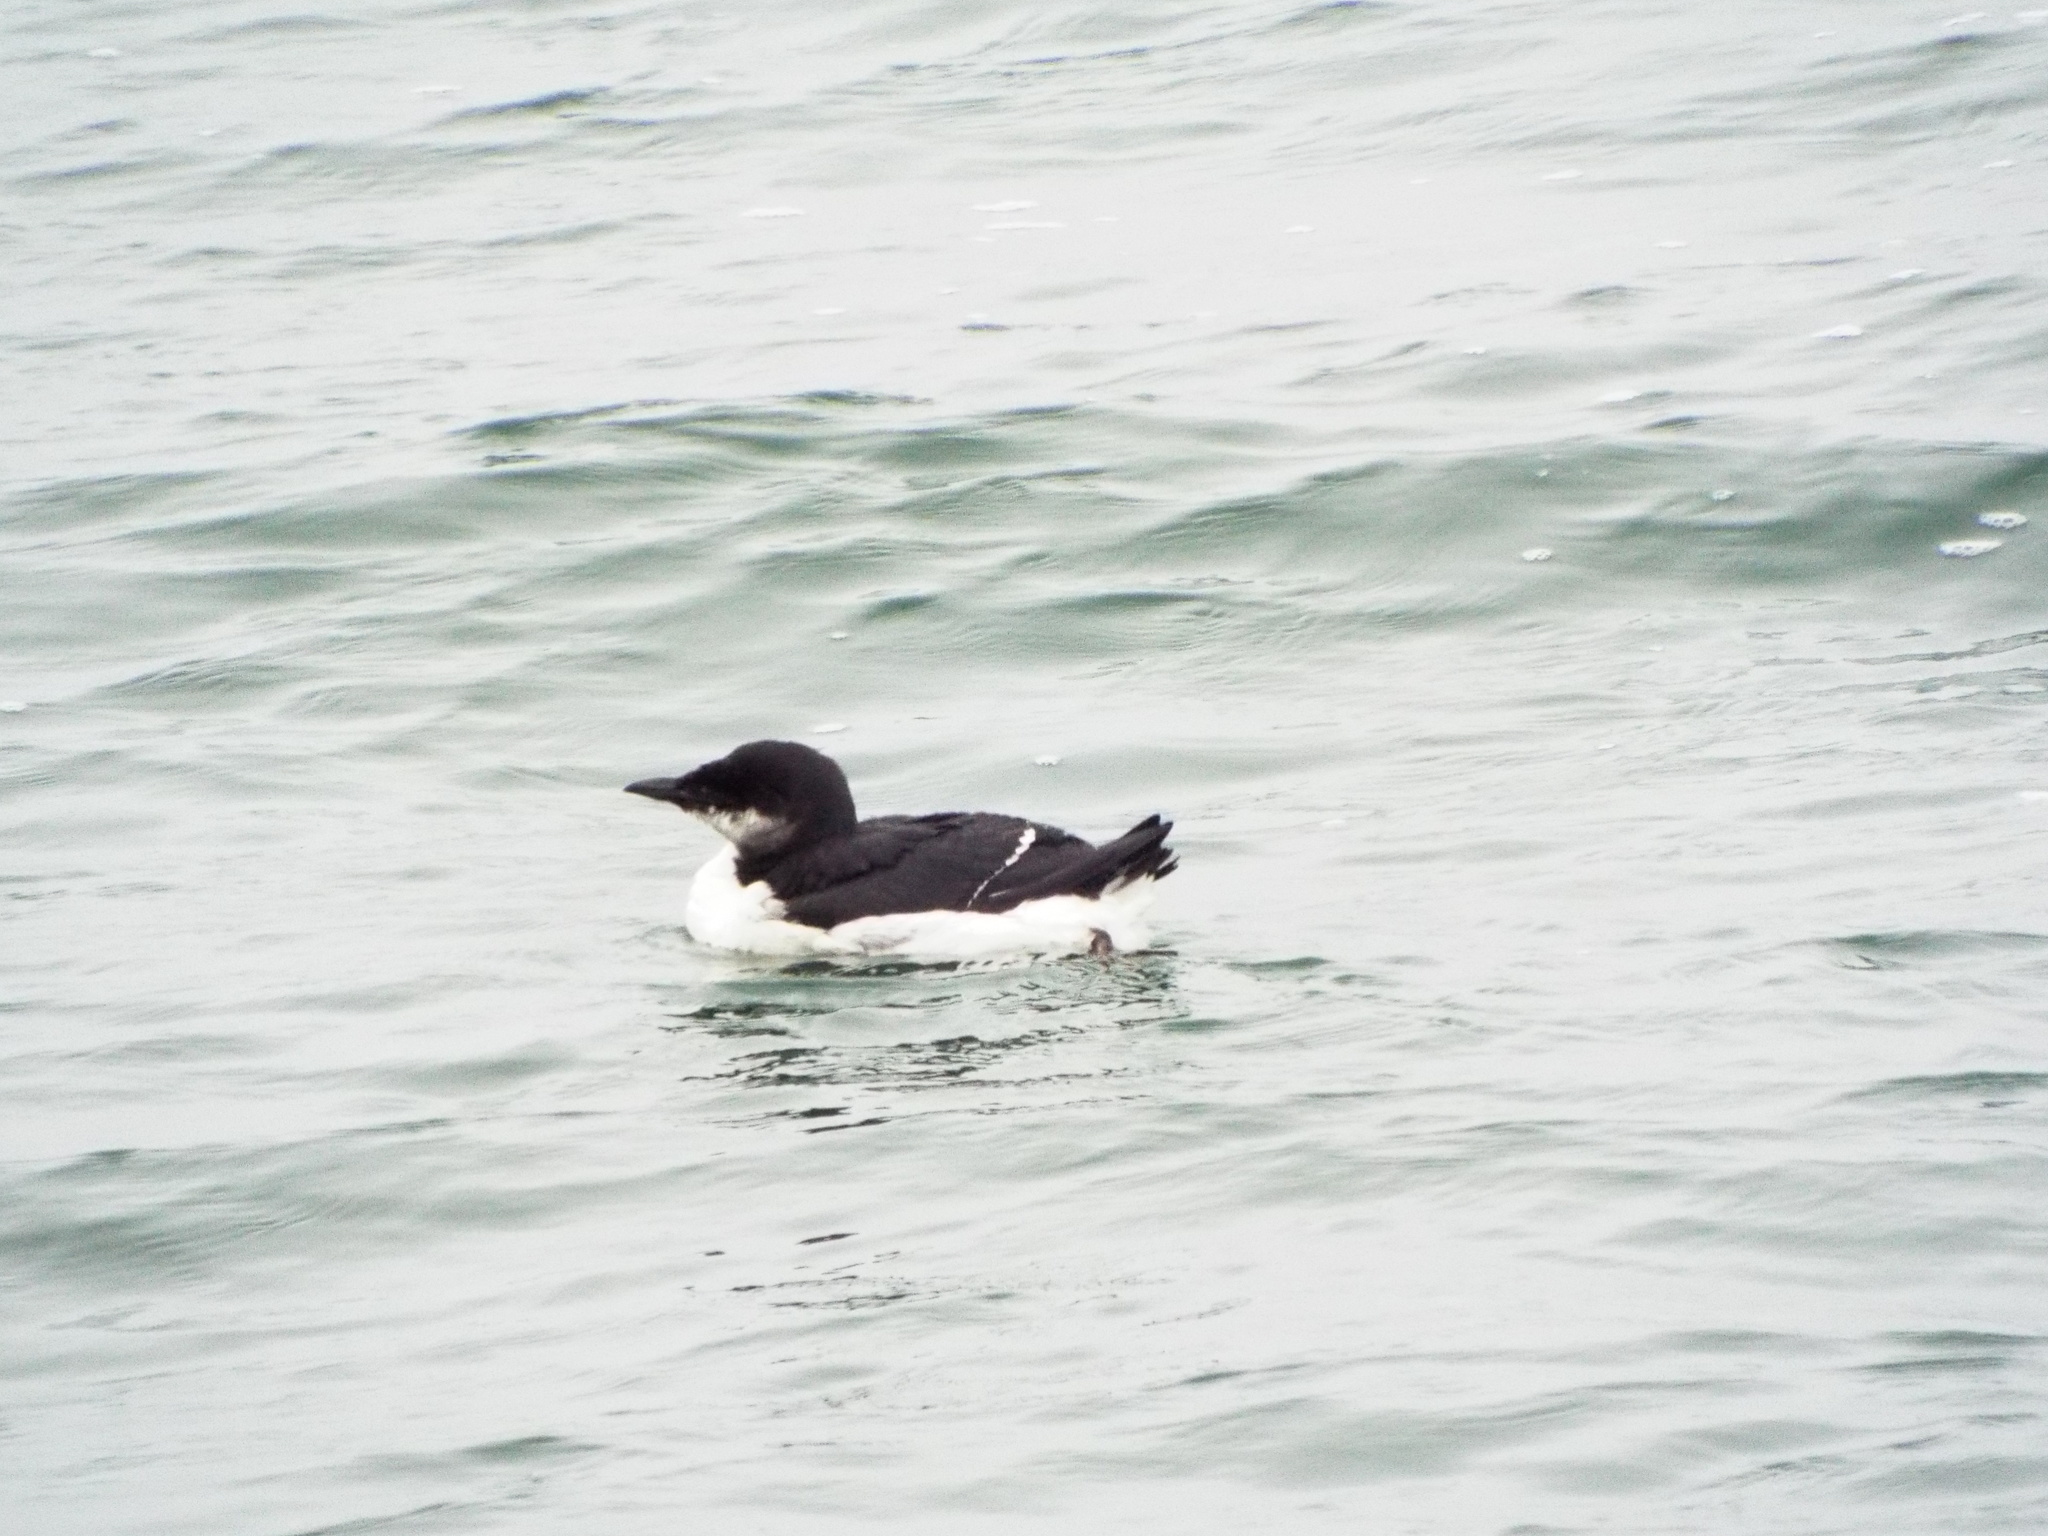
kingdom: Animalia
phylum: Chordata
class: Aves
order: Charadriiformes
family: Alcidae
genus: Uria
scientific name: Uria lomvia
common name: Thick-billed murre
